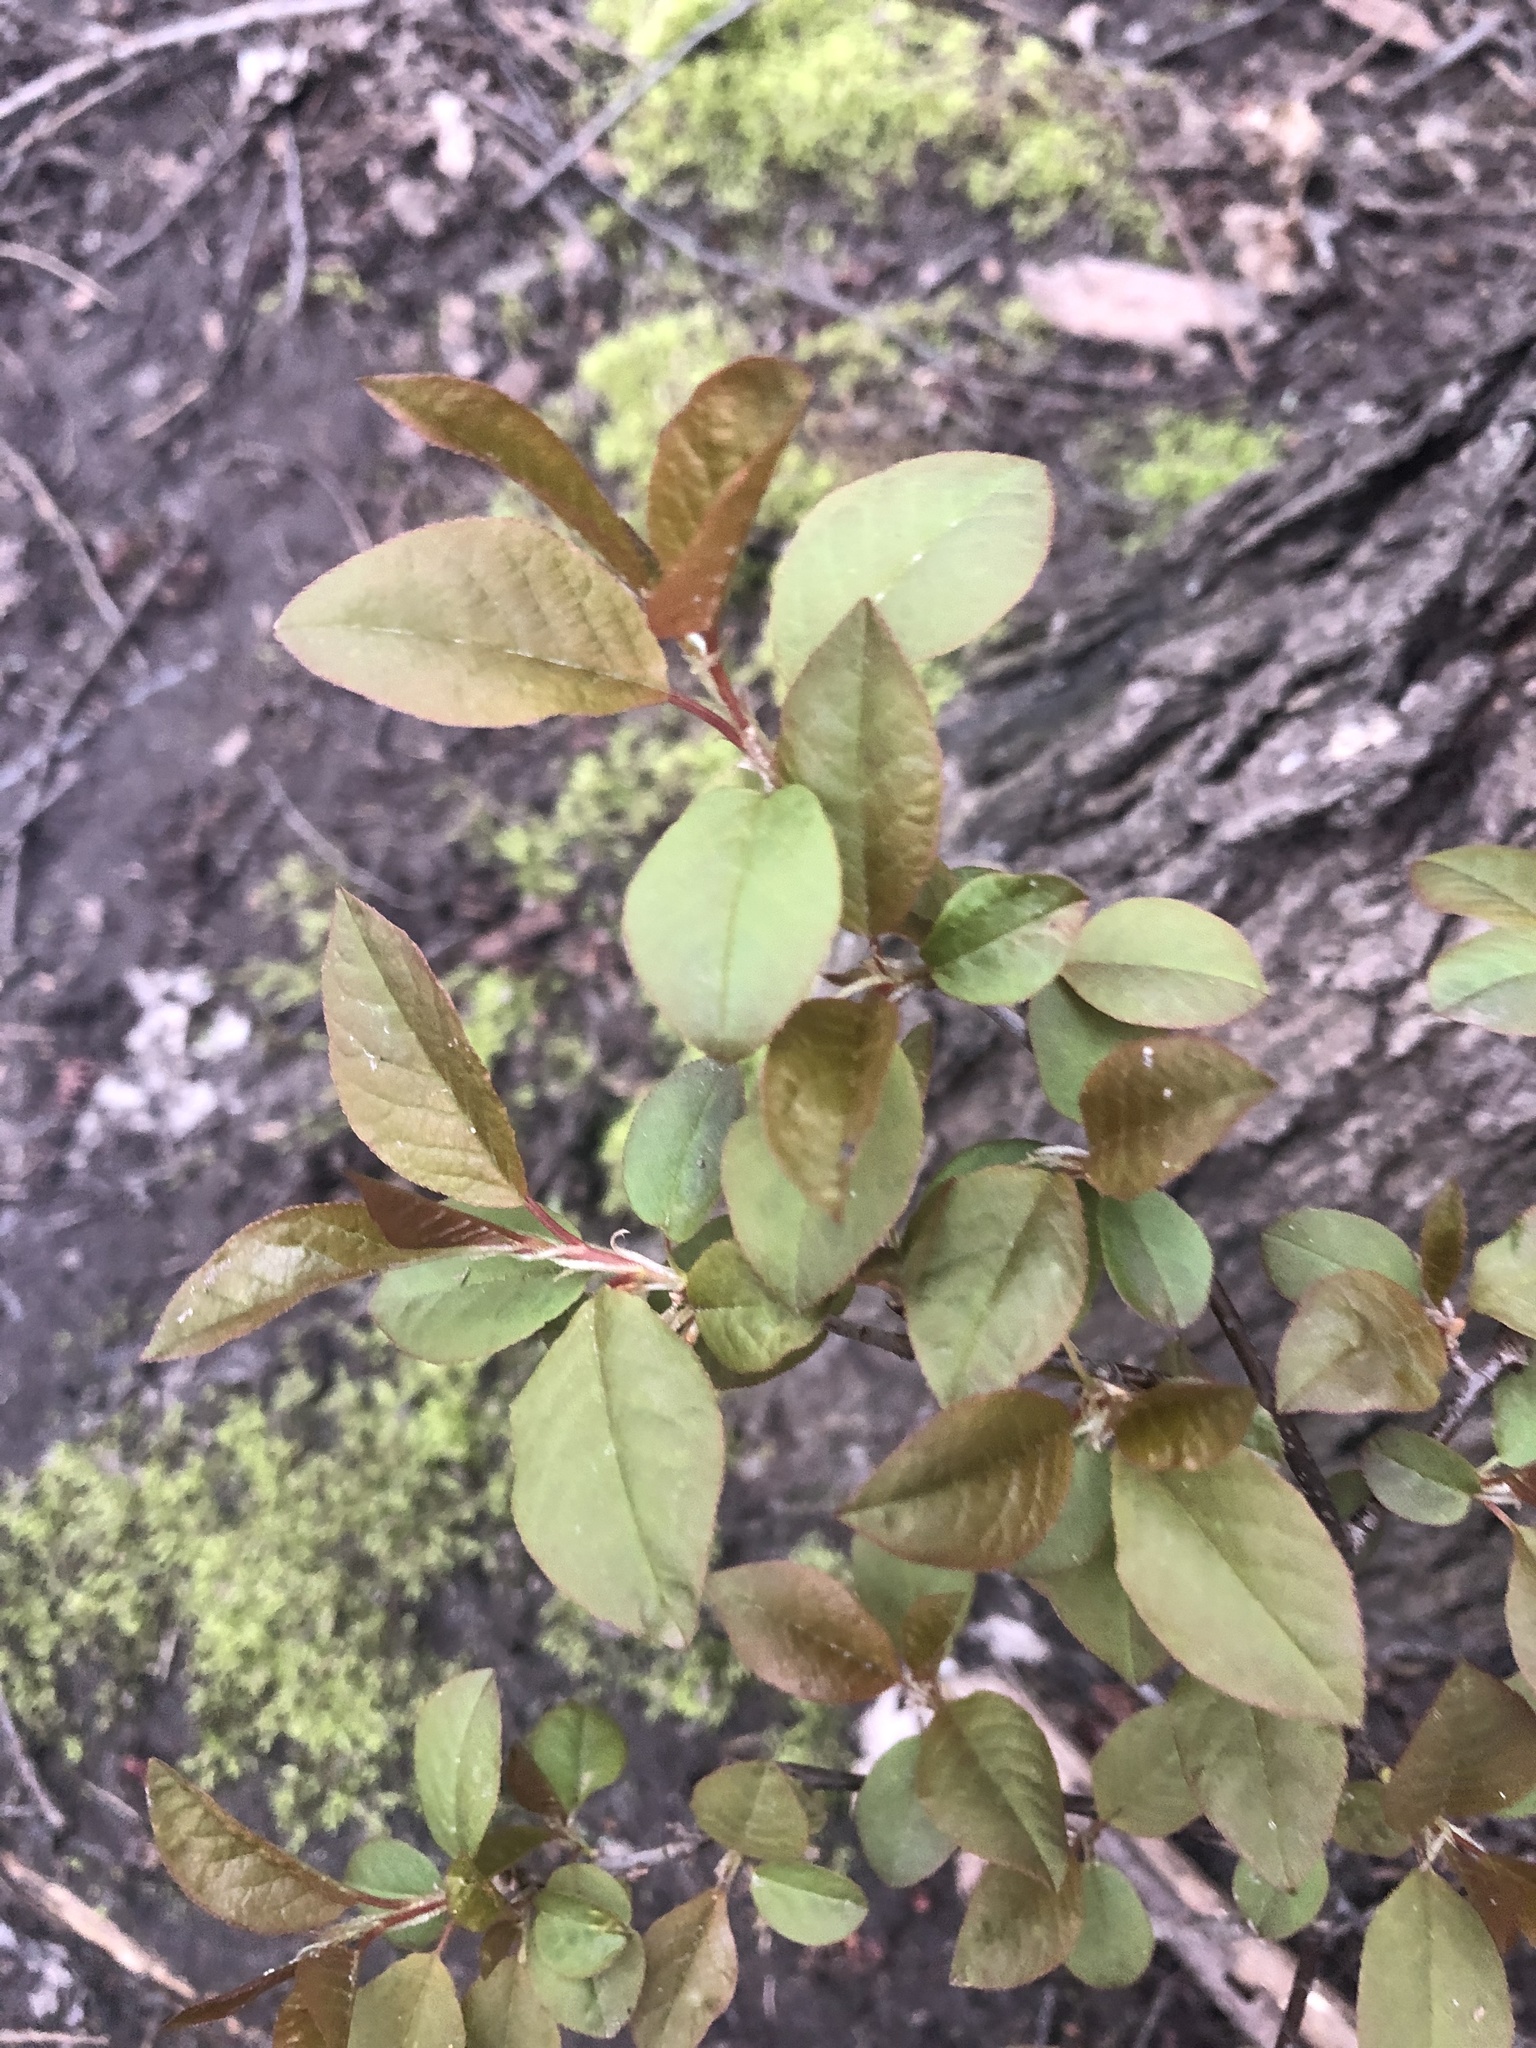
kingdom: Plantae
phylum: Tracheophyta
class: Magnoliopsida
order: Rosales
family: Rosaceae
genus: Prunus
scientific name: Prunus virginiana
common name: Chokecherry
